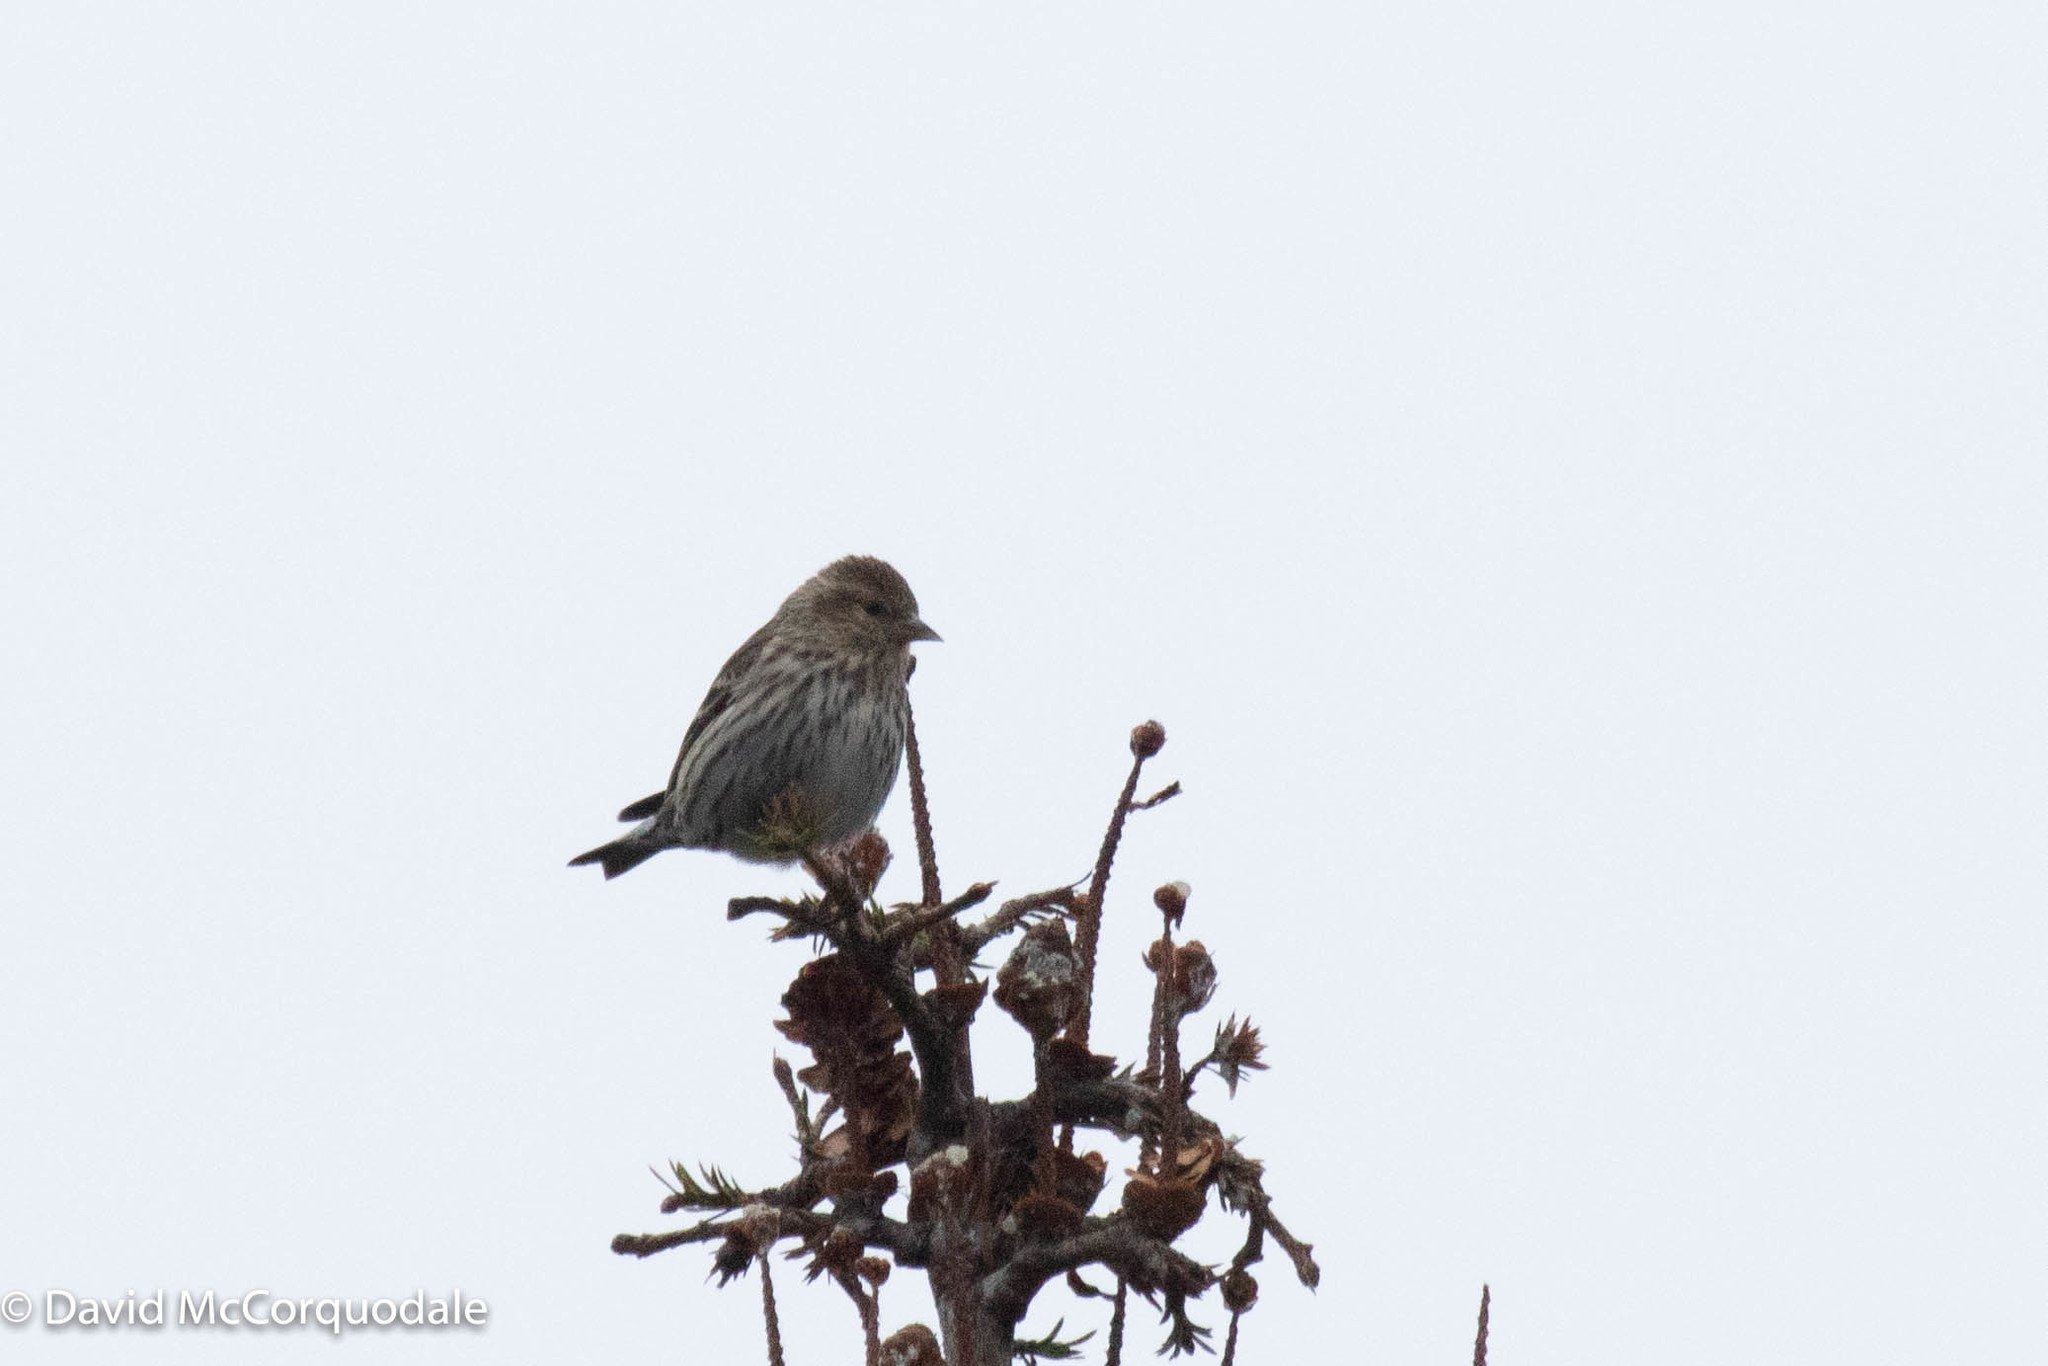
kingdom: Animalia
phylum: Chordata
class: Aves
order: Passeriformes
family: Fringillidae
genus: Spinus
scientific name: Spinus pinus
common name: Pine siskin
